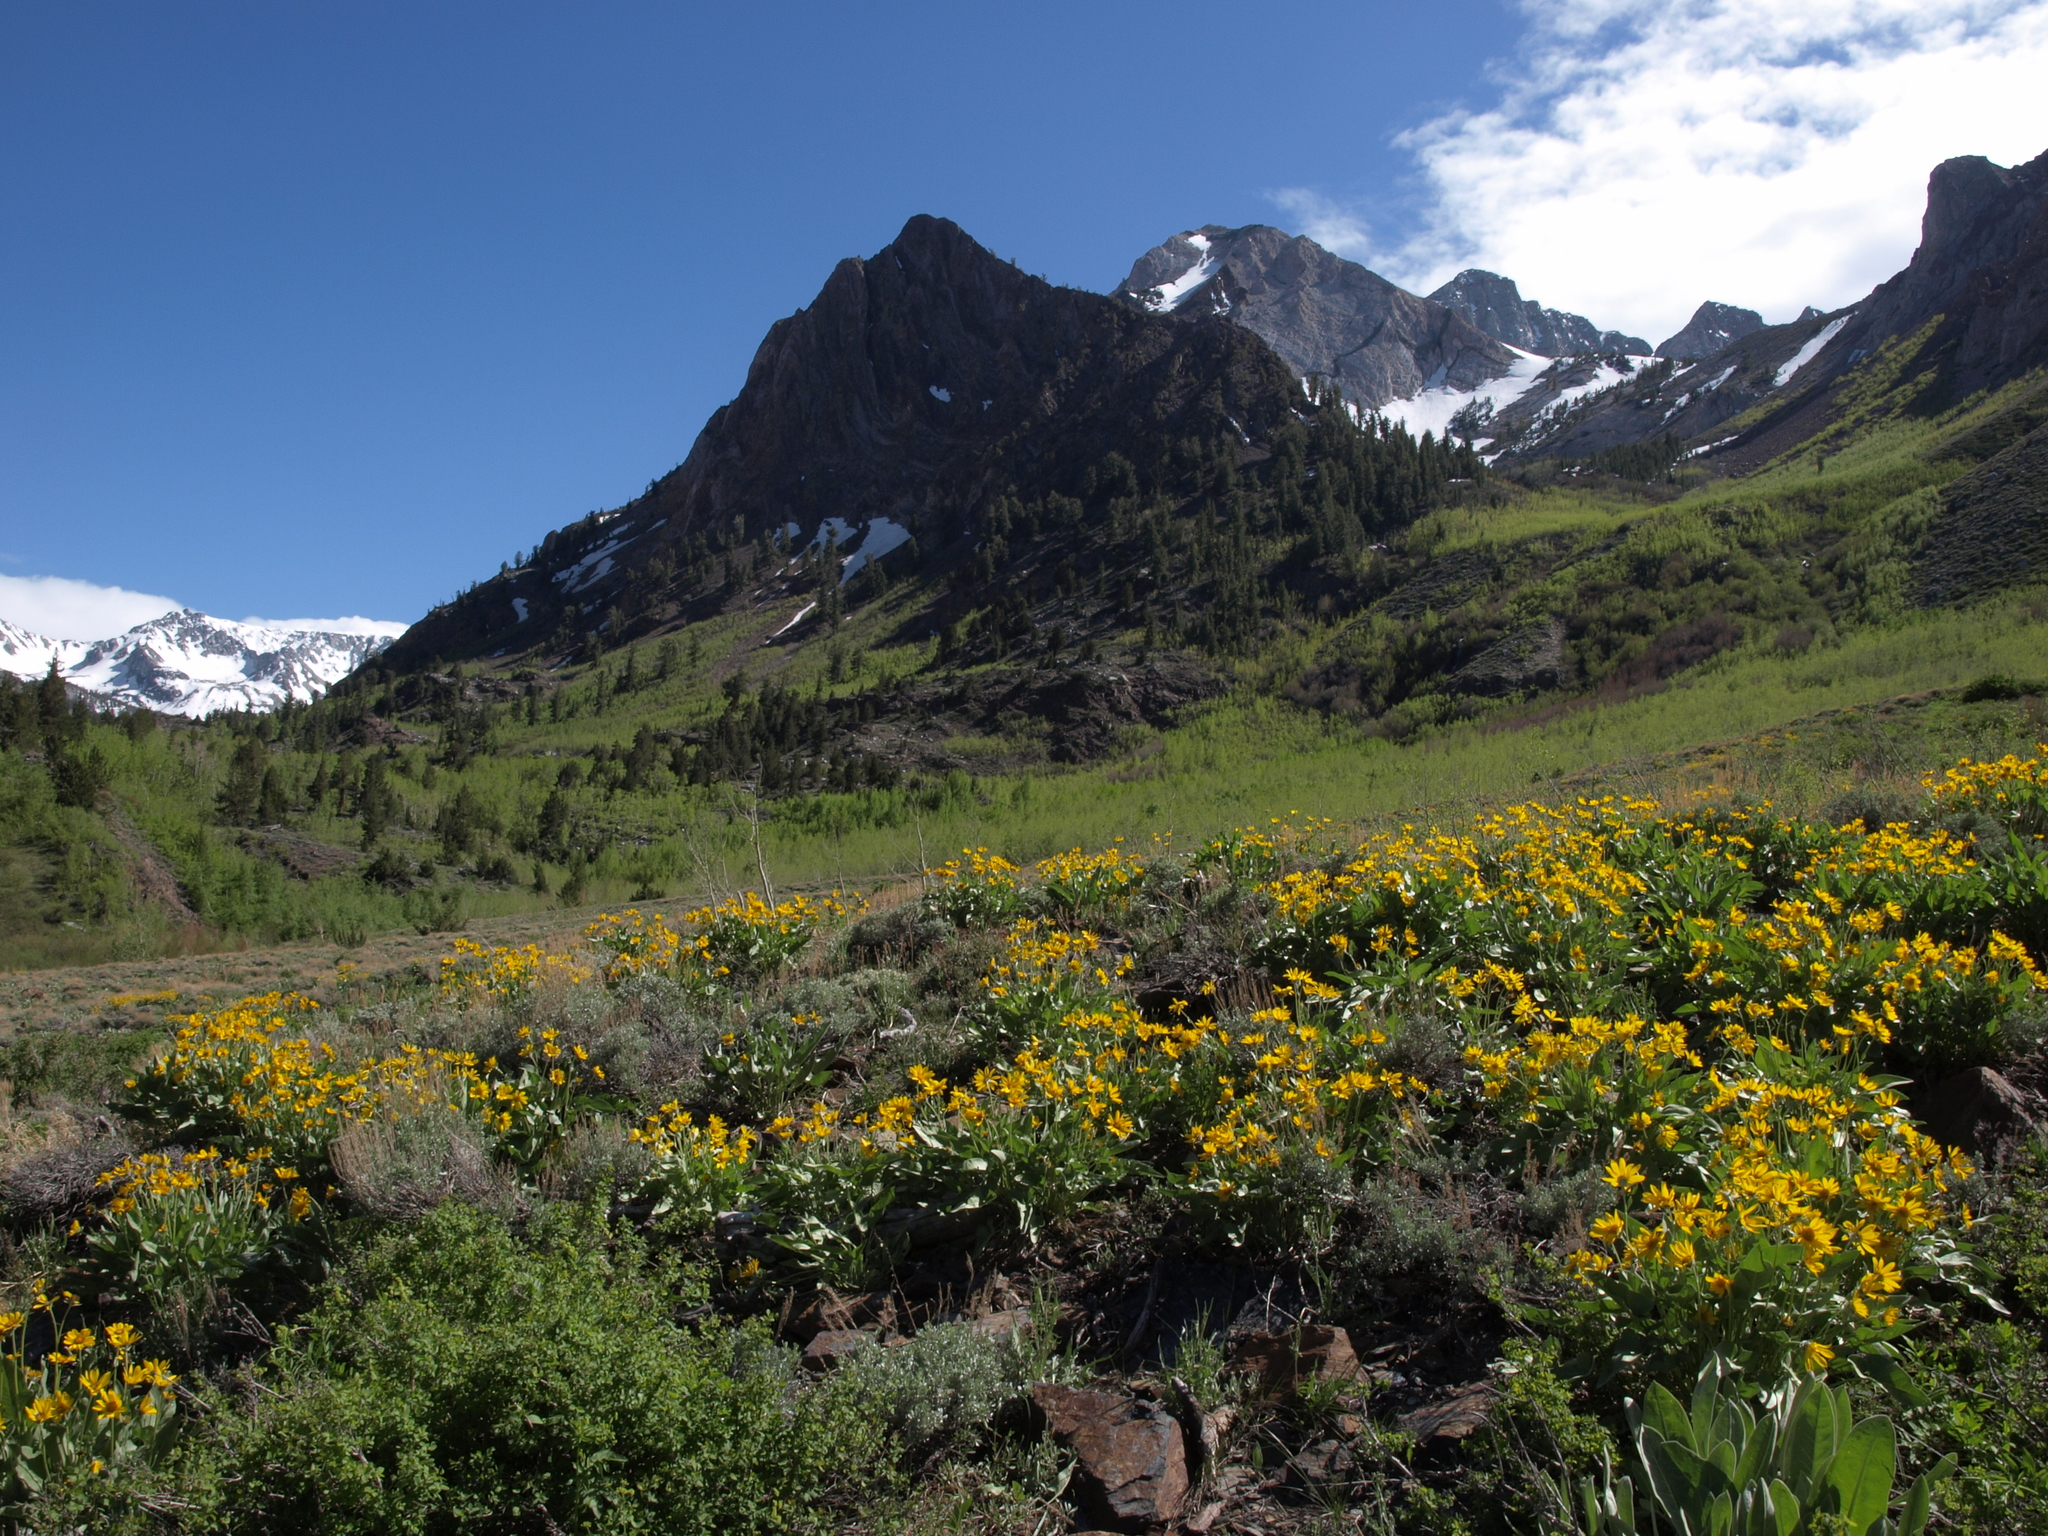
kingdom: Plantae
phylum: Tracheophyta
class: Magnoliopsida
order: Asterales
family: Asteraceae
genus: Wyethia
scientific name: Wyethia sagittata
